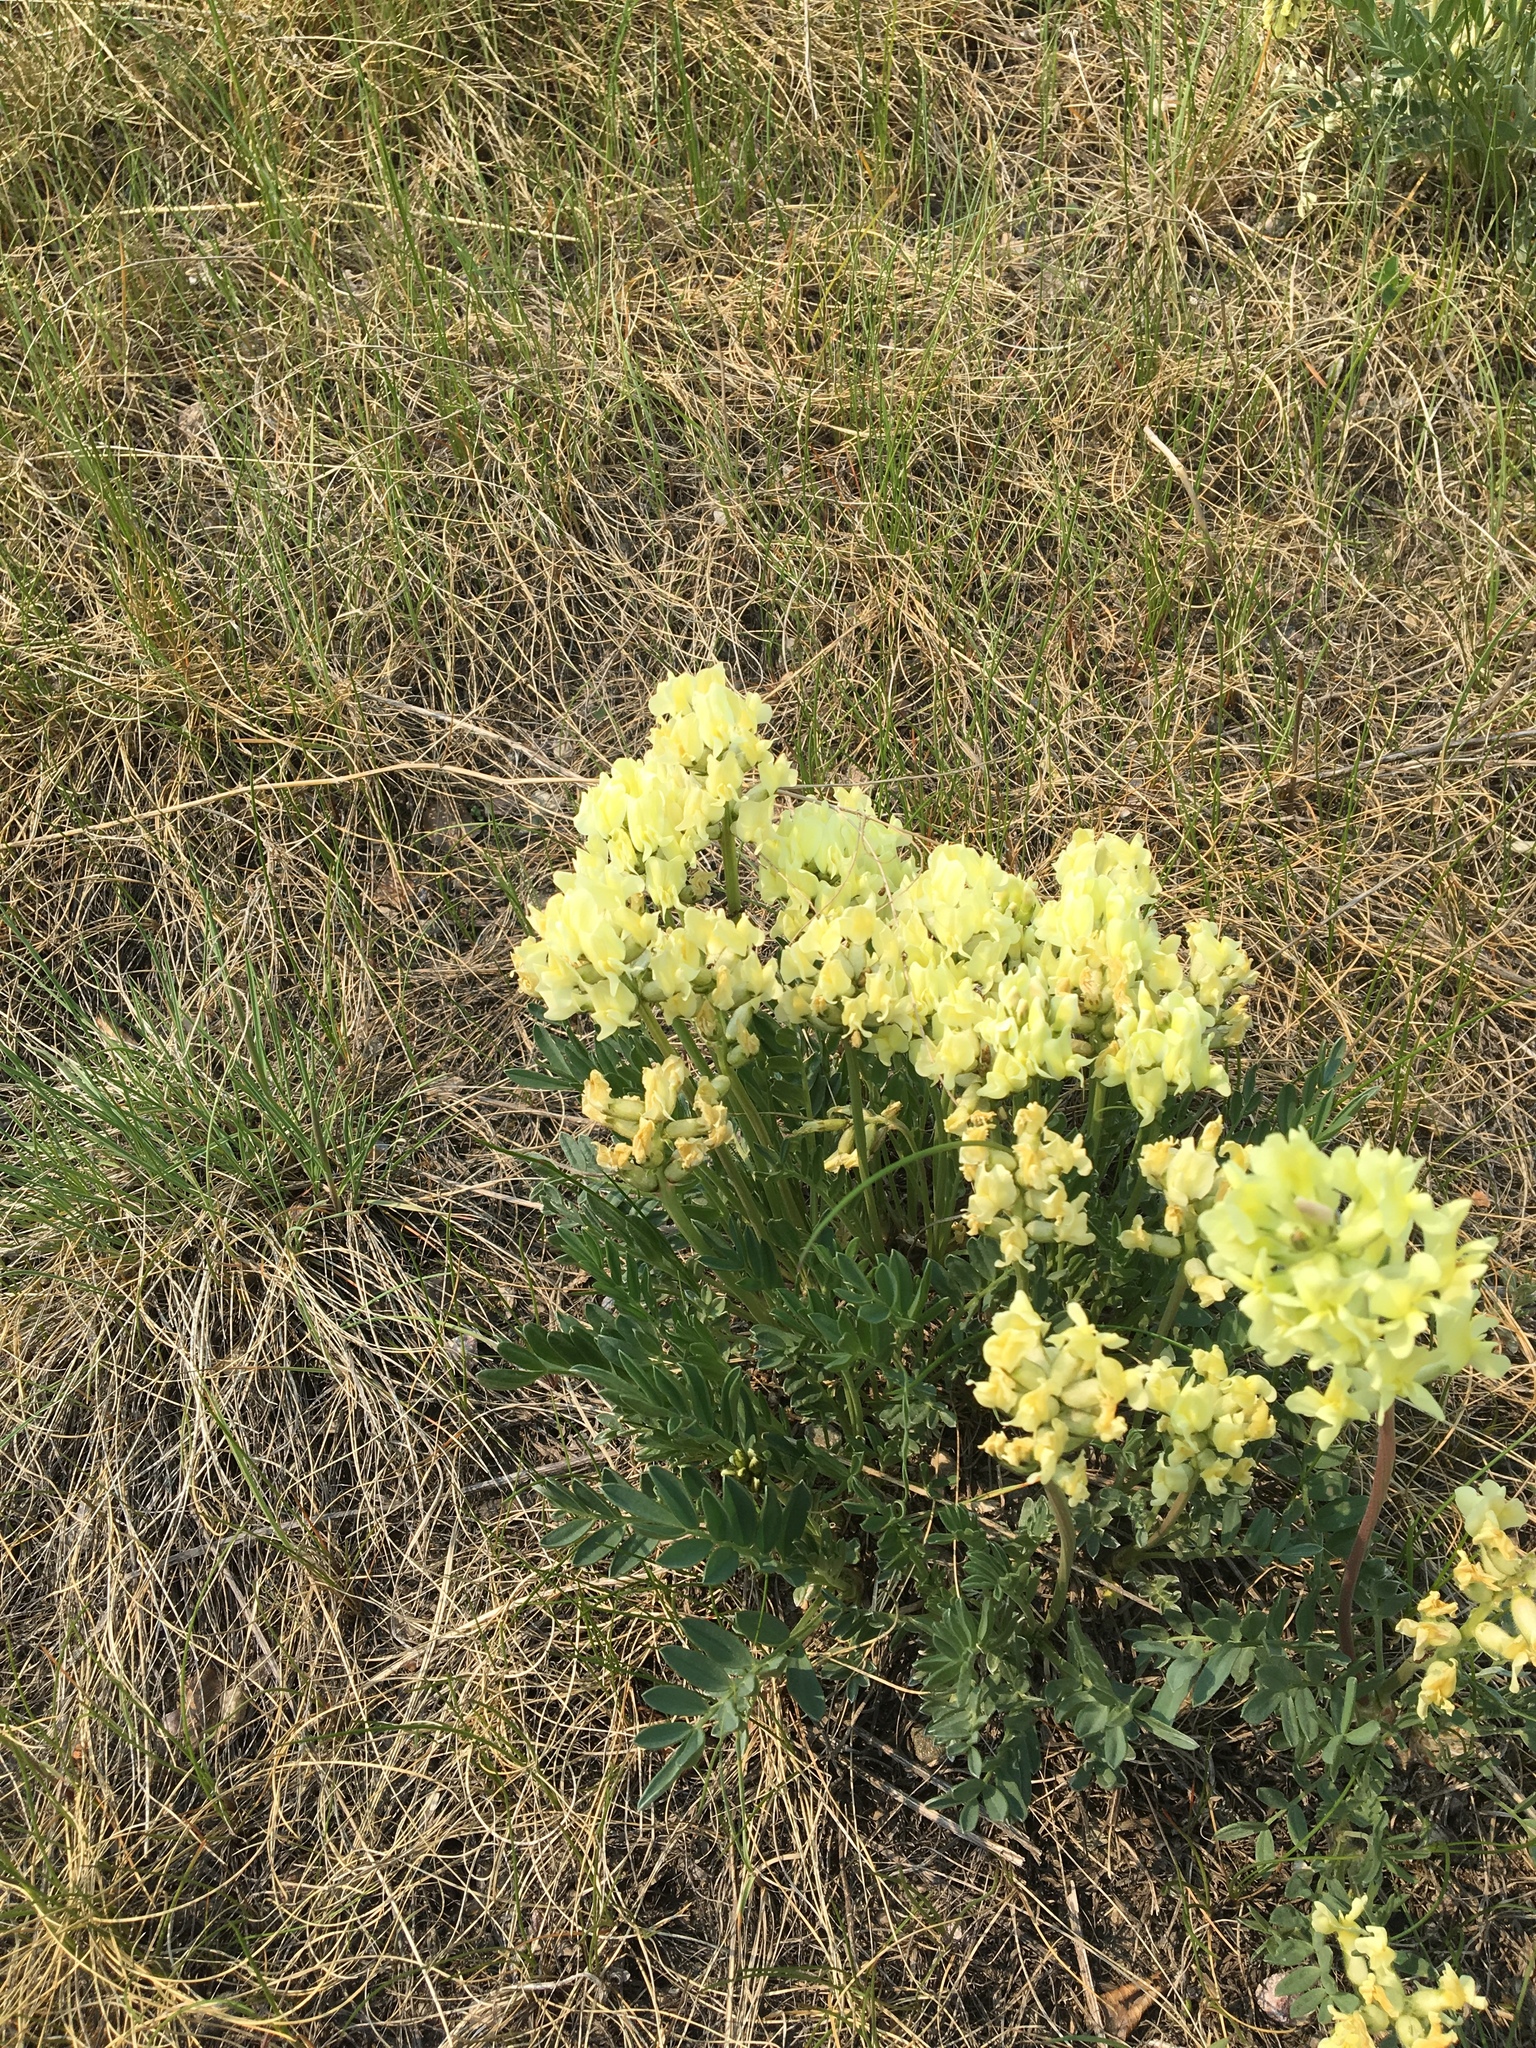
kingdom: Plantae
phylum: Tracheophyta
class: Magnoliopsida
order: Fabales
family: Fabaceae
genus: Oxytropis
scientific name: Oxytropis sericea
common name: Silky locoweed
